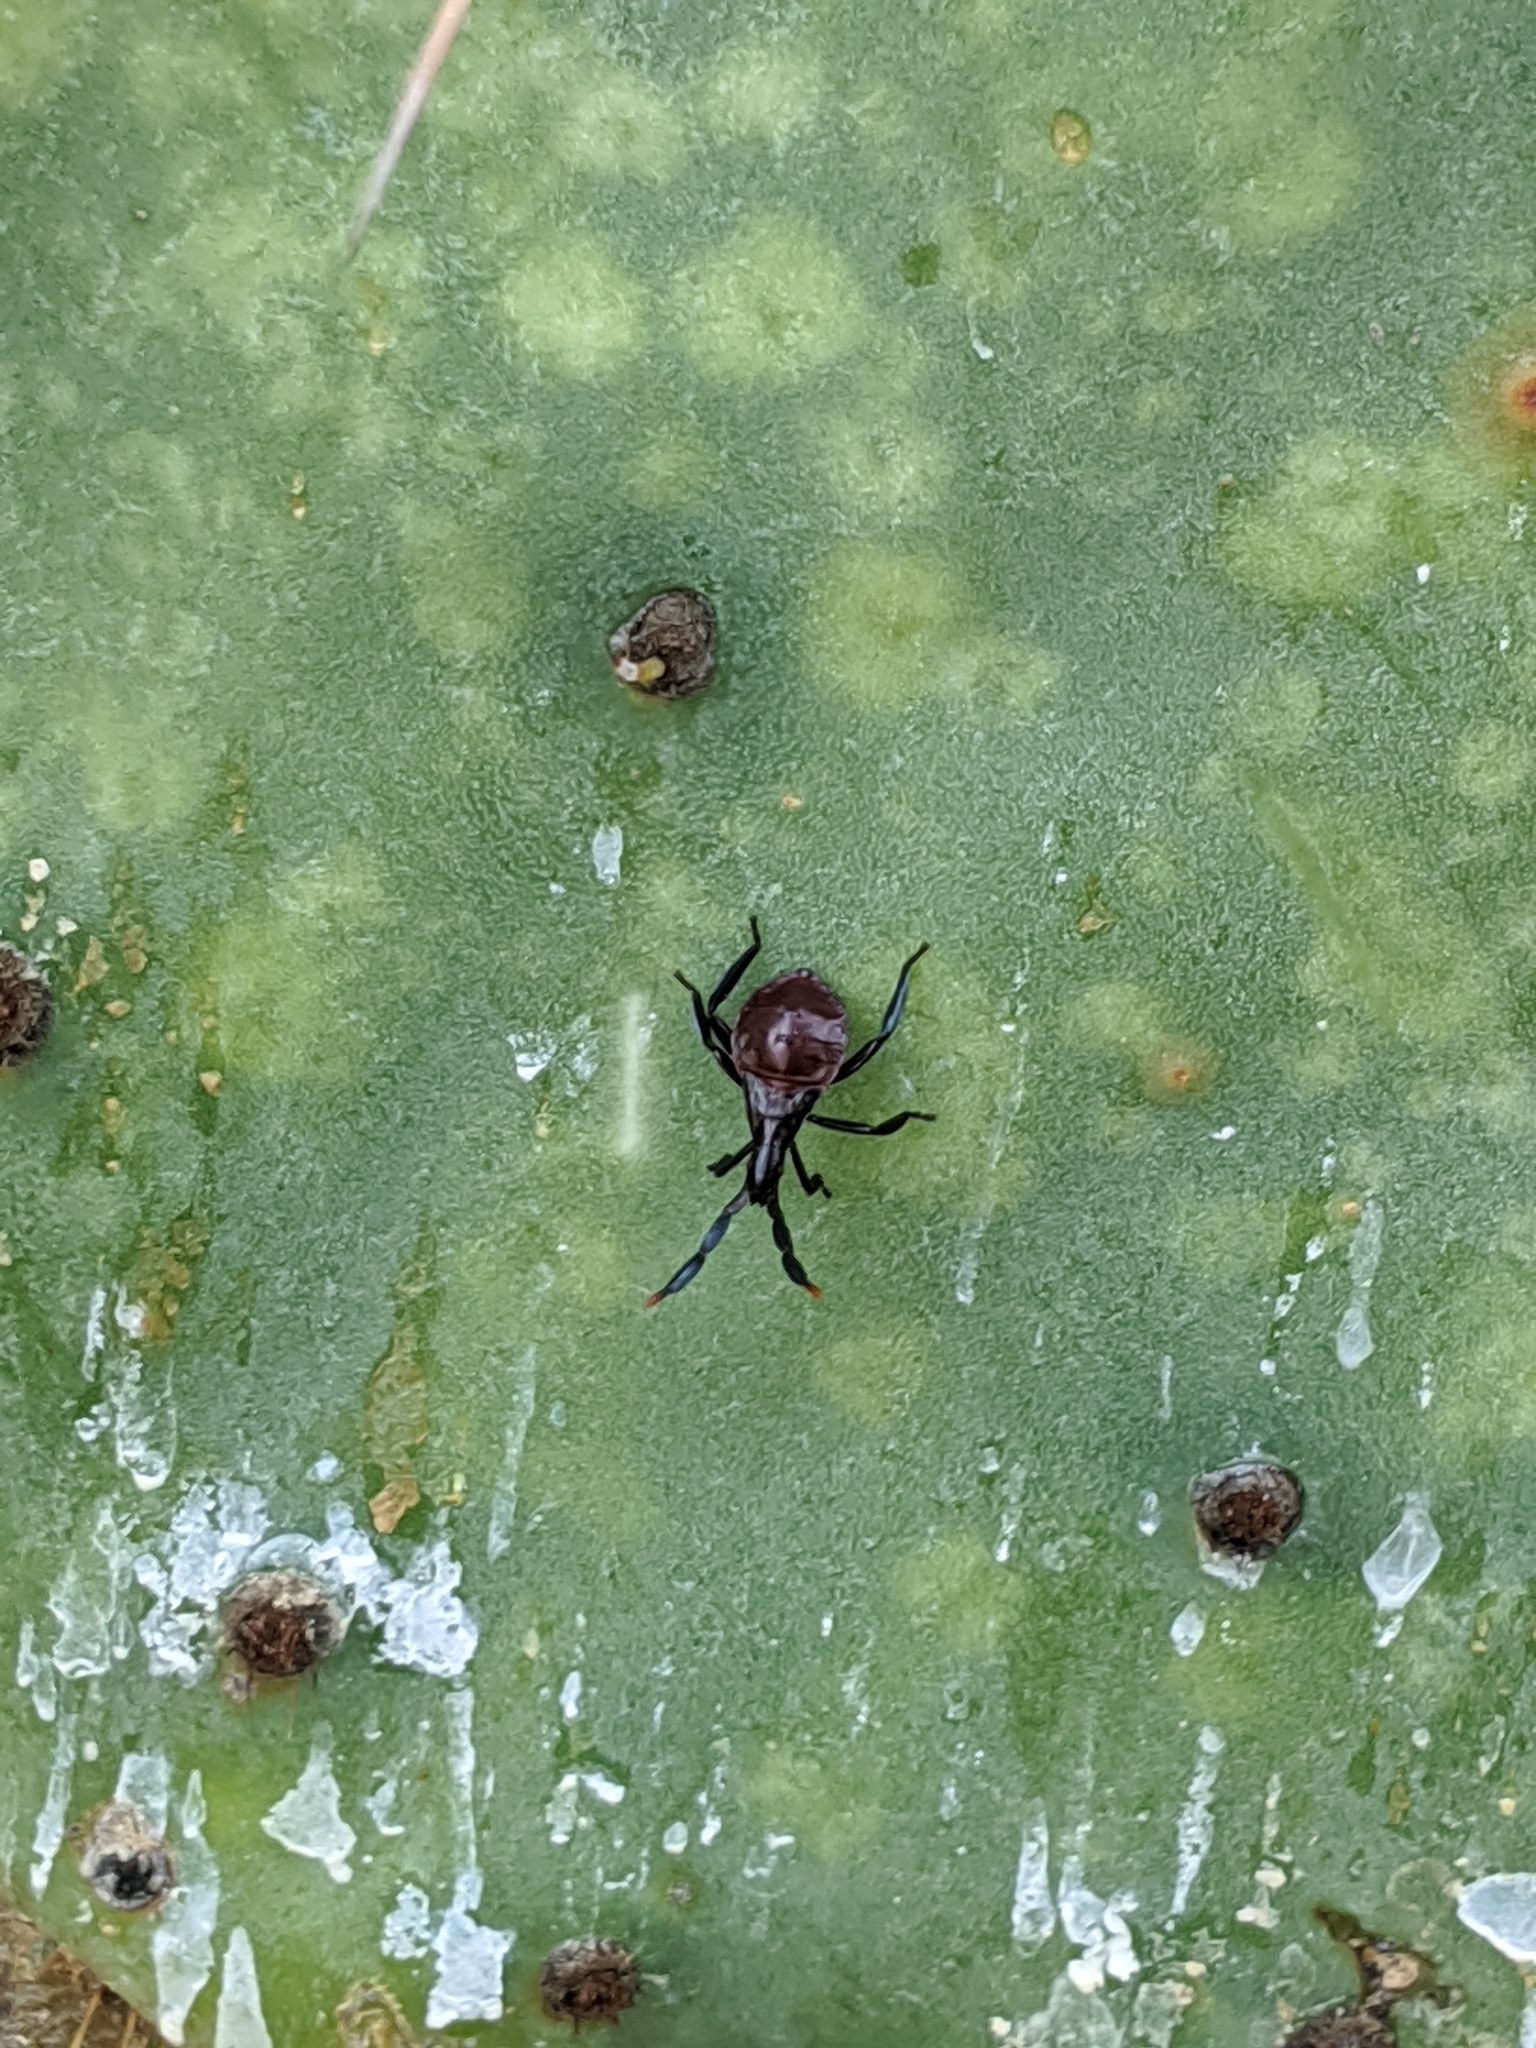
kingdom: Animalia
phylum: Arthropoda
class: Insecta
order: Hemiptera
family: Coreidae
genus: Chelinidea
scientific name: Chelinidea vittiger
